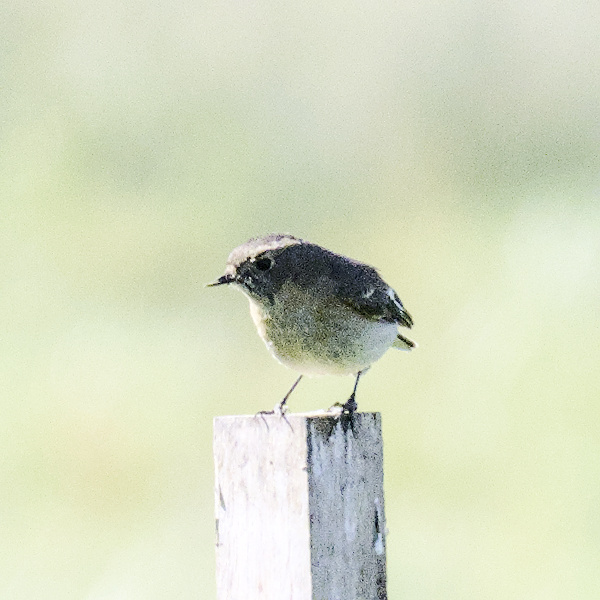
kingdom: Animalia
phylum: Chordata
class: Aves
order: Passeriformes
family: Petroicidae
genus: Petroica
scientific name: Petroica phoenicea
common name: Flame robin
